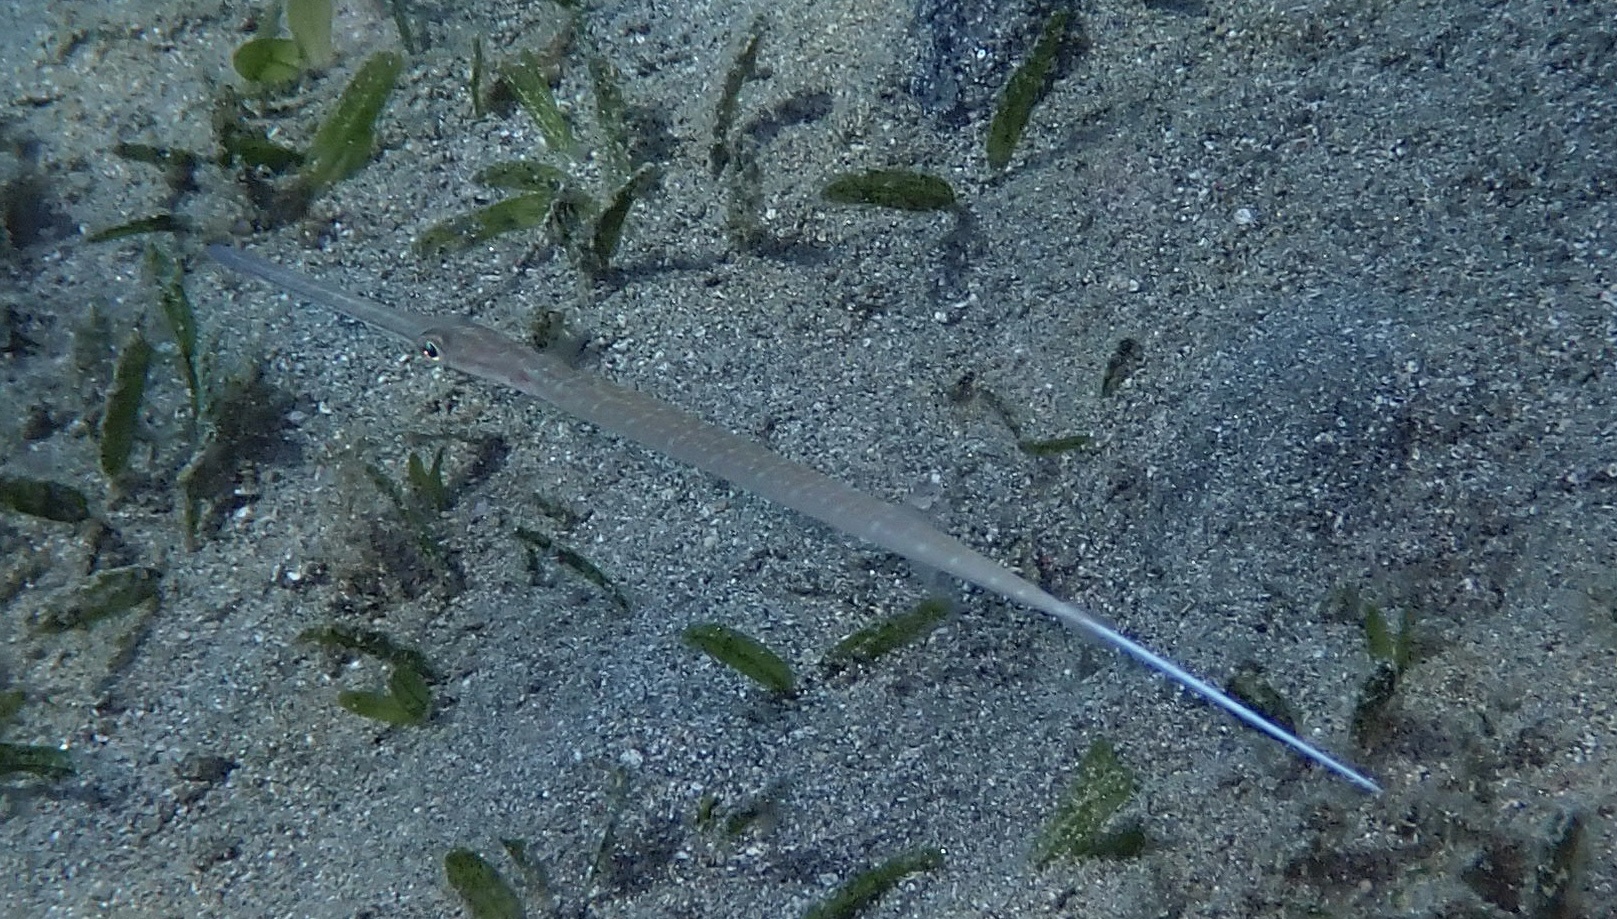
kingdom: Animalia
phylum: Chordata
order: Syngnathiformes
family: Fistulariidae
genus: Fistularia
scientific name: Fistularia commersonii
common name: Bluespotted cornetfish
